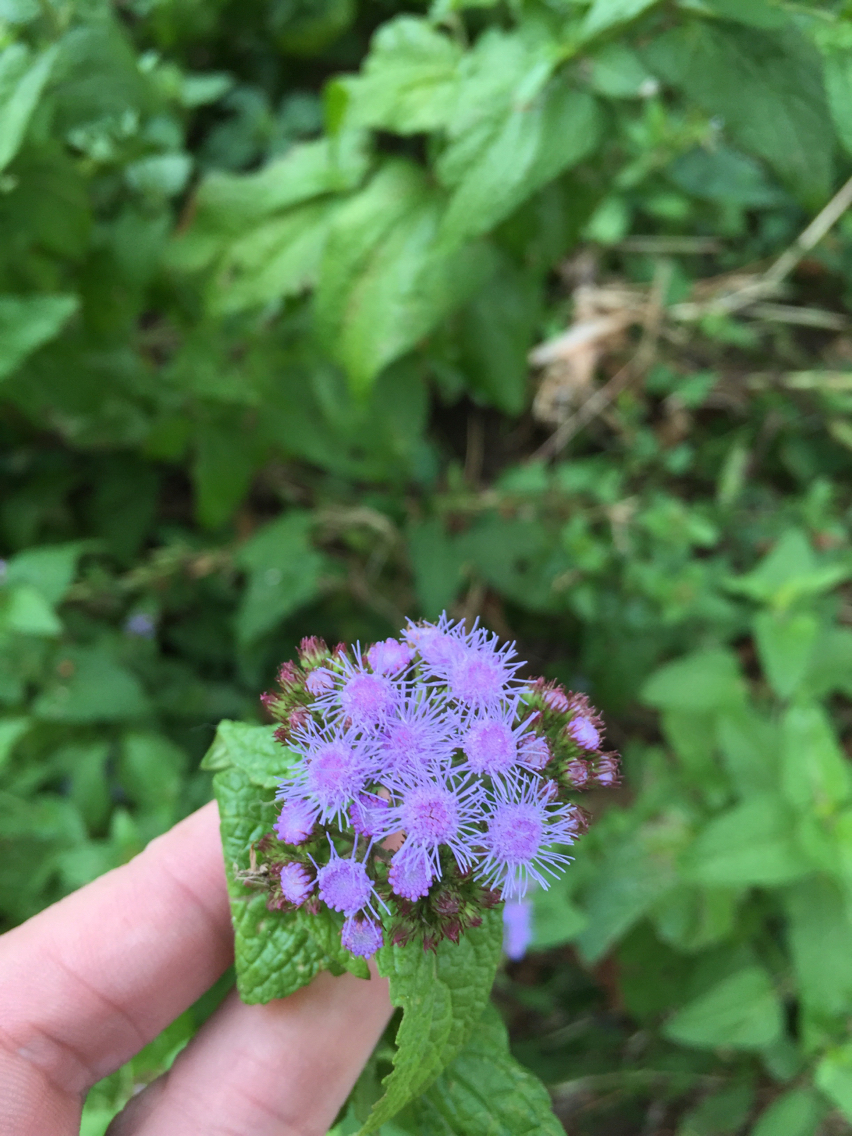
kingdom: Plantae
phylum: Tracheophyta
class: Magnoliopsida
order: Asterales
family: Asteraceae
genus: Conoclinium
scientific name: Conoclinium coelestinum
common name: Blue mistflower
